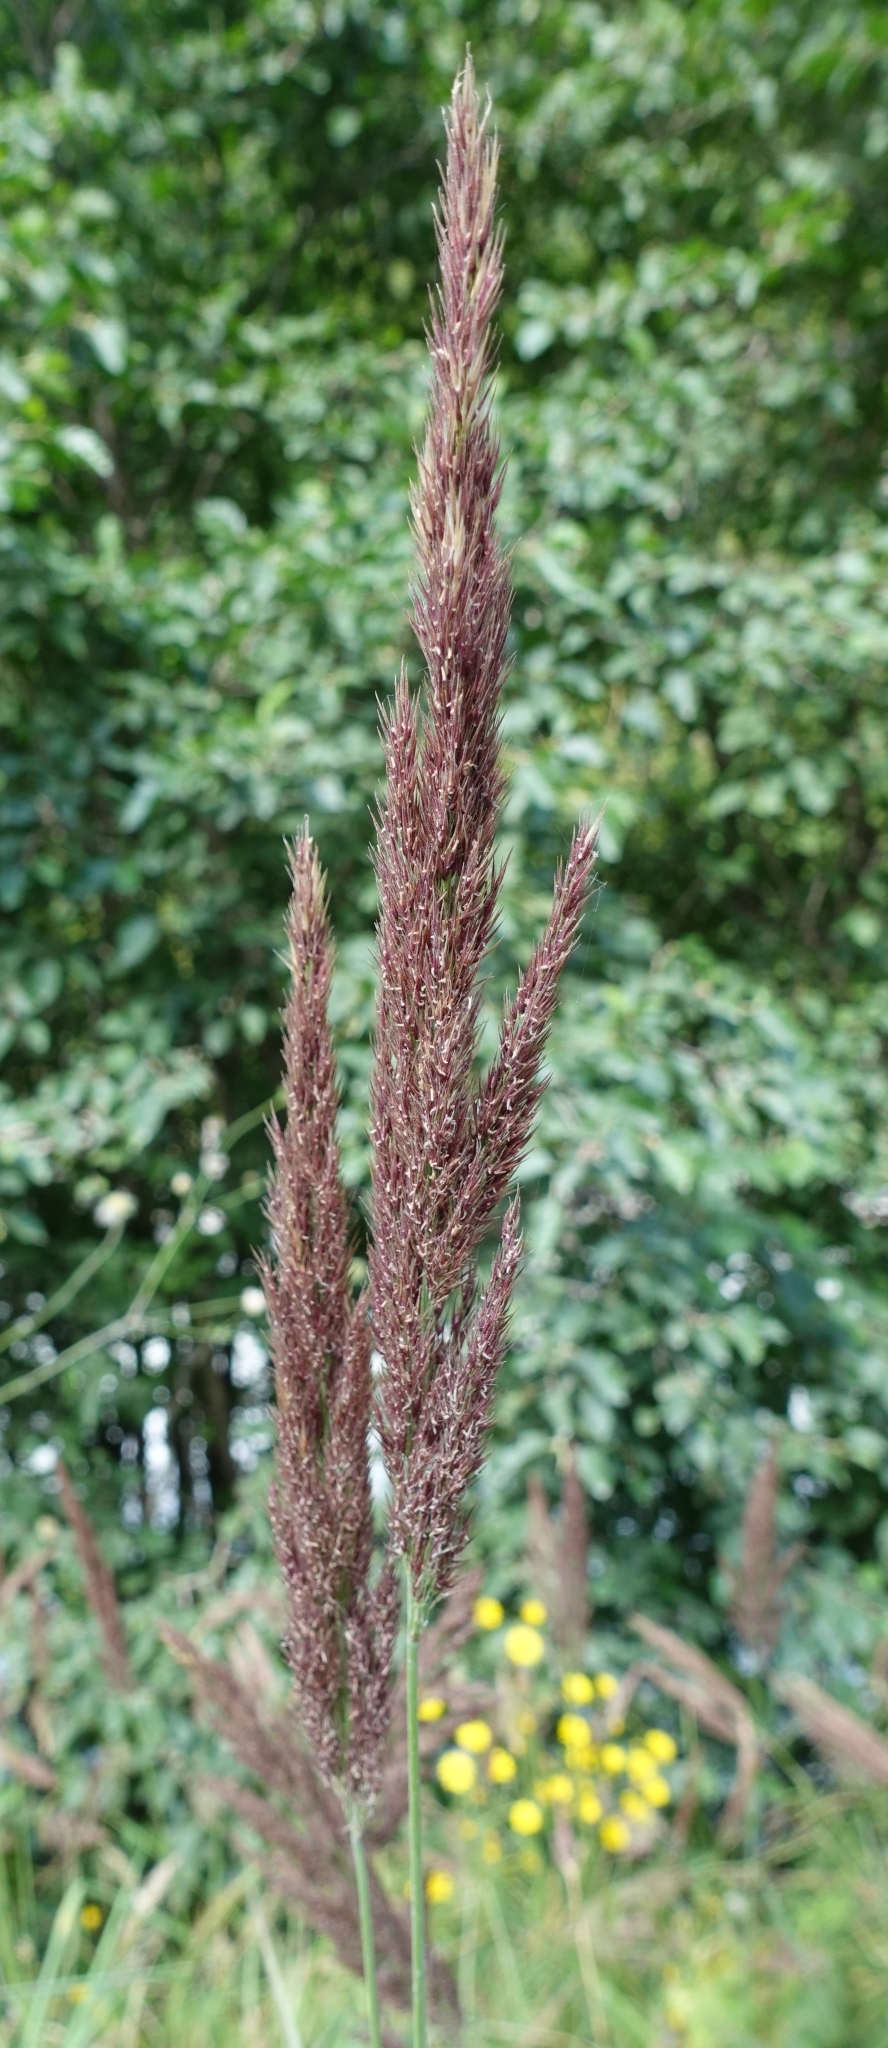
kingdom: Plantae
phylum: Tracheophyta
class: Liliopsida
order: Poales
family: Poaceae
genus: Calamagrostis
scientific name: Calamagrostis epigejos
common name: Wood small-reed
